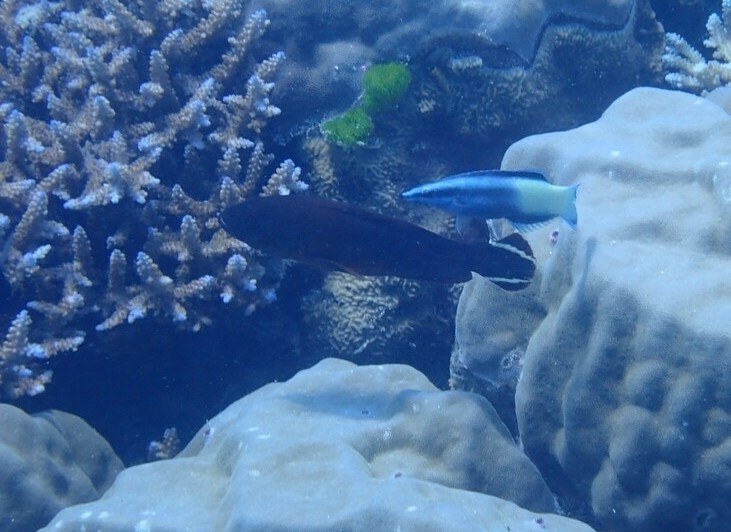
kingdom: Animalia
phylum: Chordata
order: Perciformes
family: Serranidae
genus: Cephalopholis
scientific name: Cephalopholis urodeta
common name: Darkfin hind
